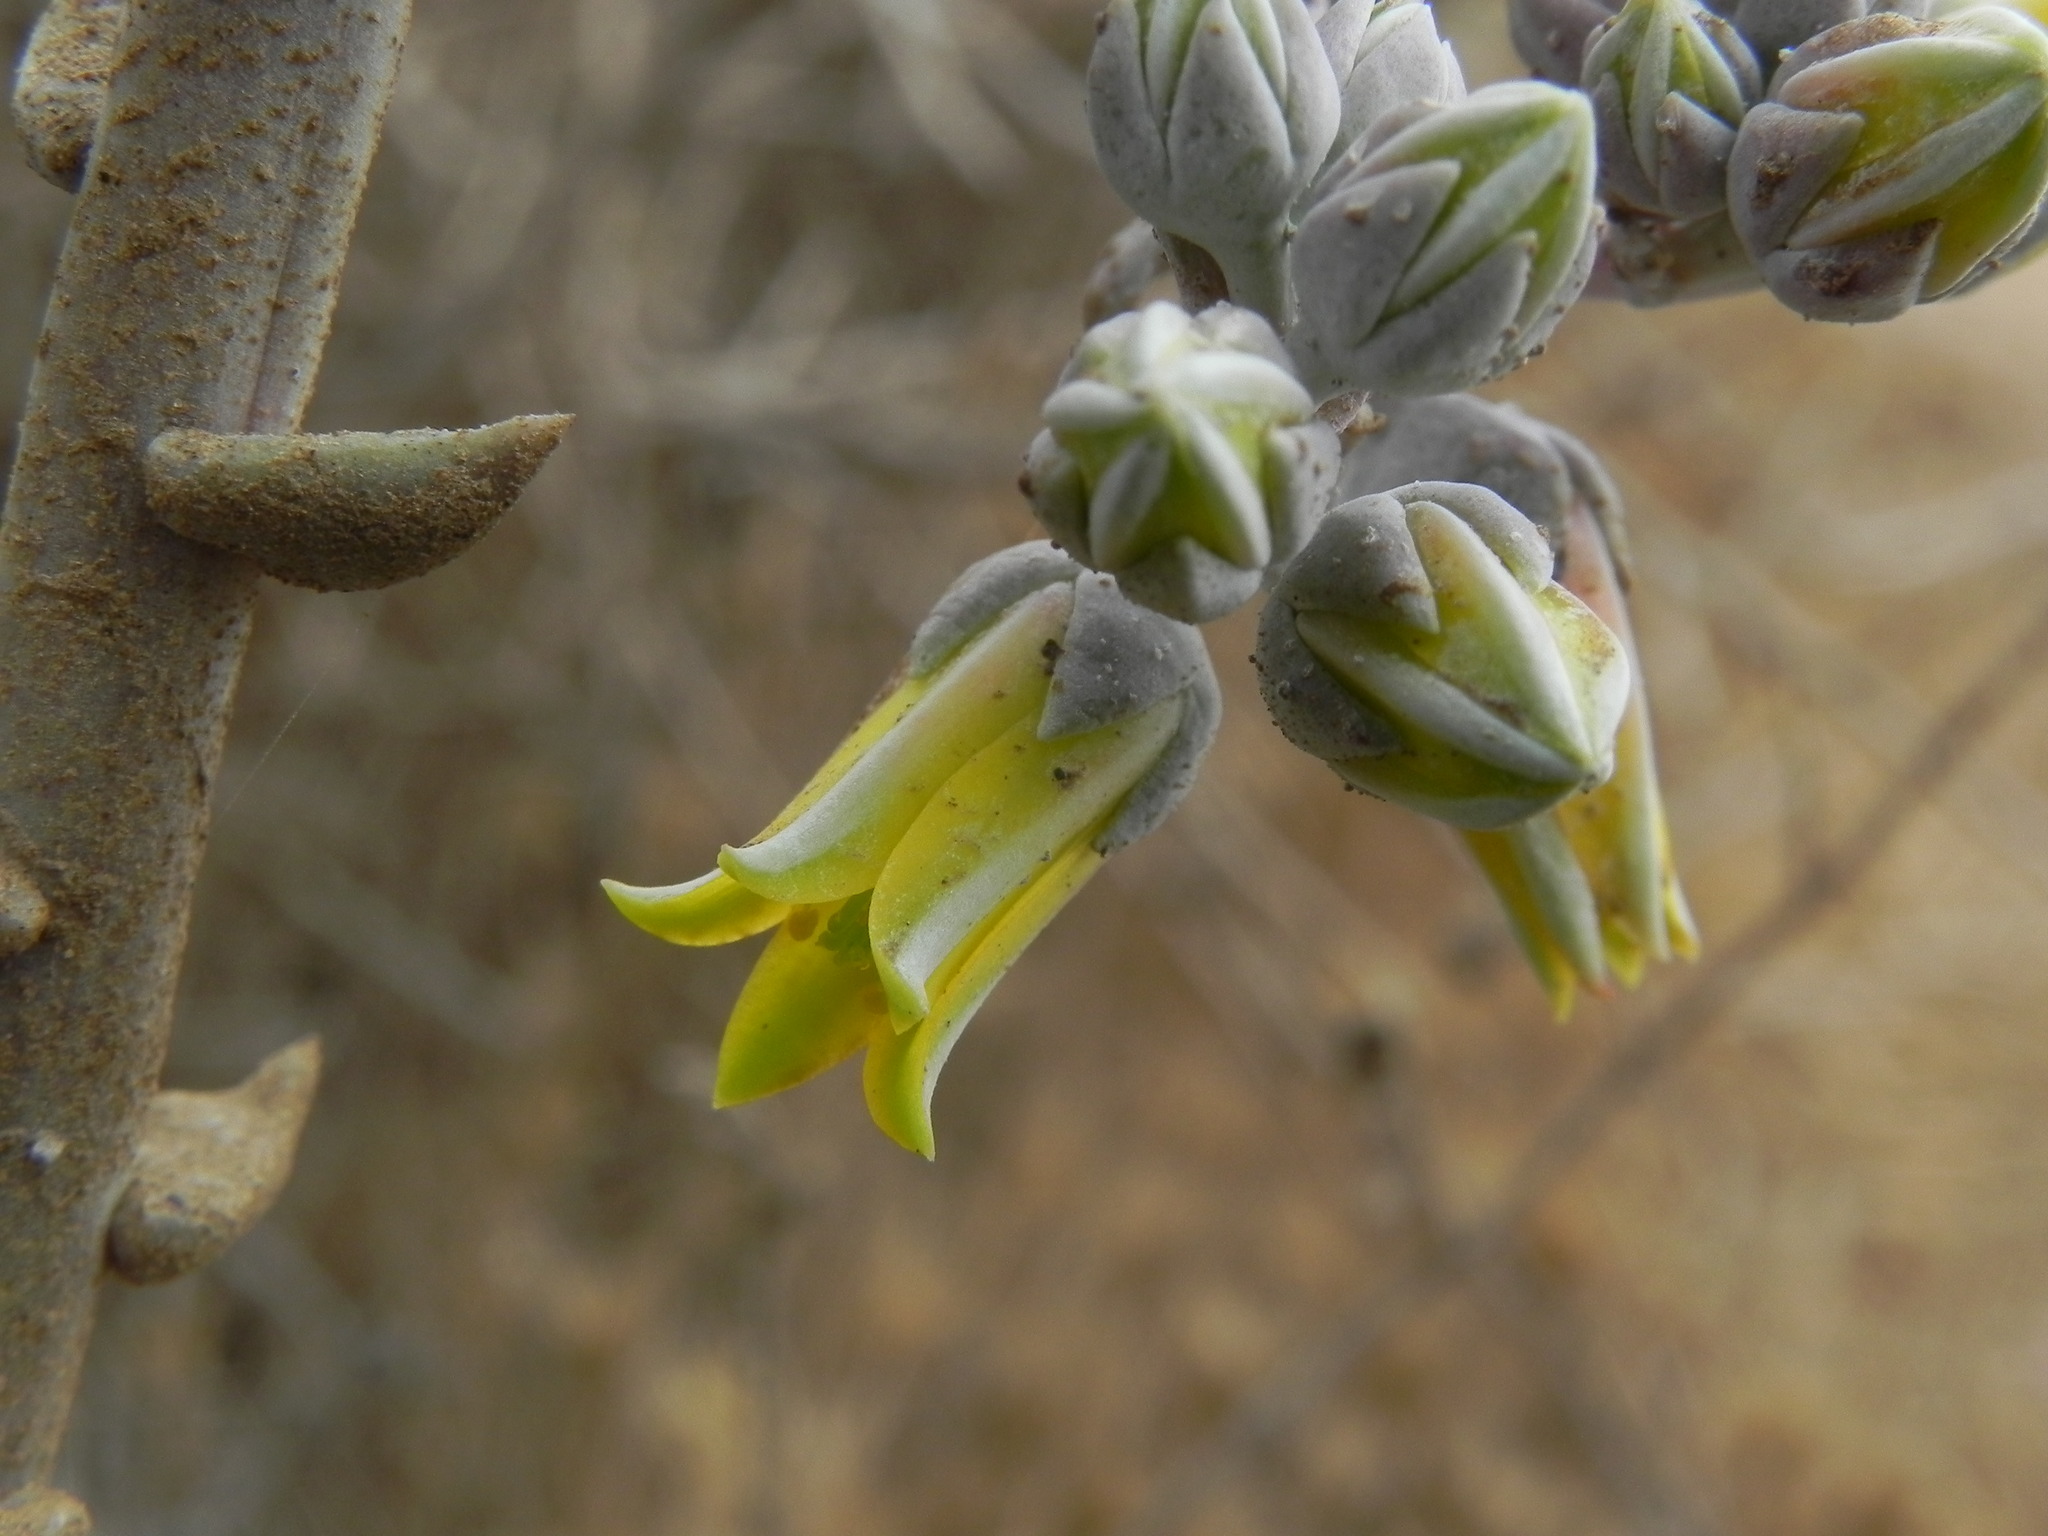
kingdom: Plantae
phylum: Tracheophyta
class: Magnoliopsida
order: Saxifragales
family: Crassulaceae
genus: Dudleya
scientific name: Dudleya caespitosa
